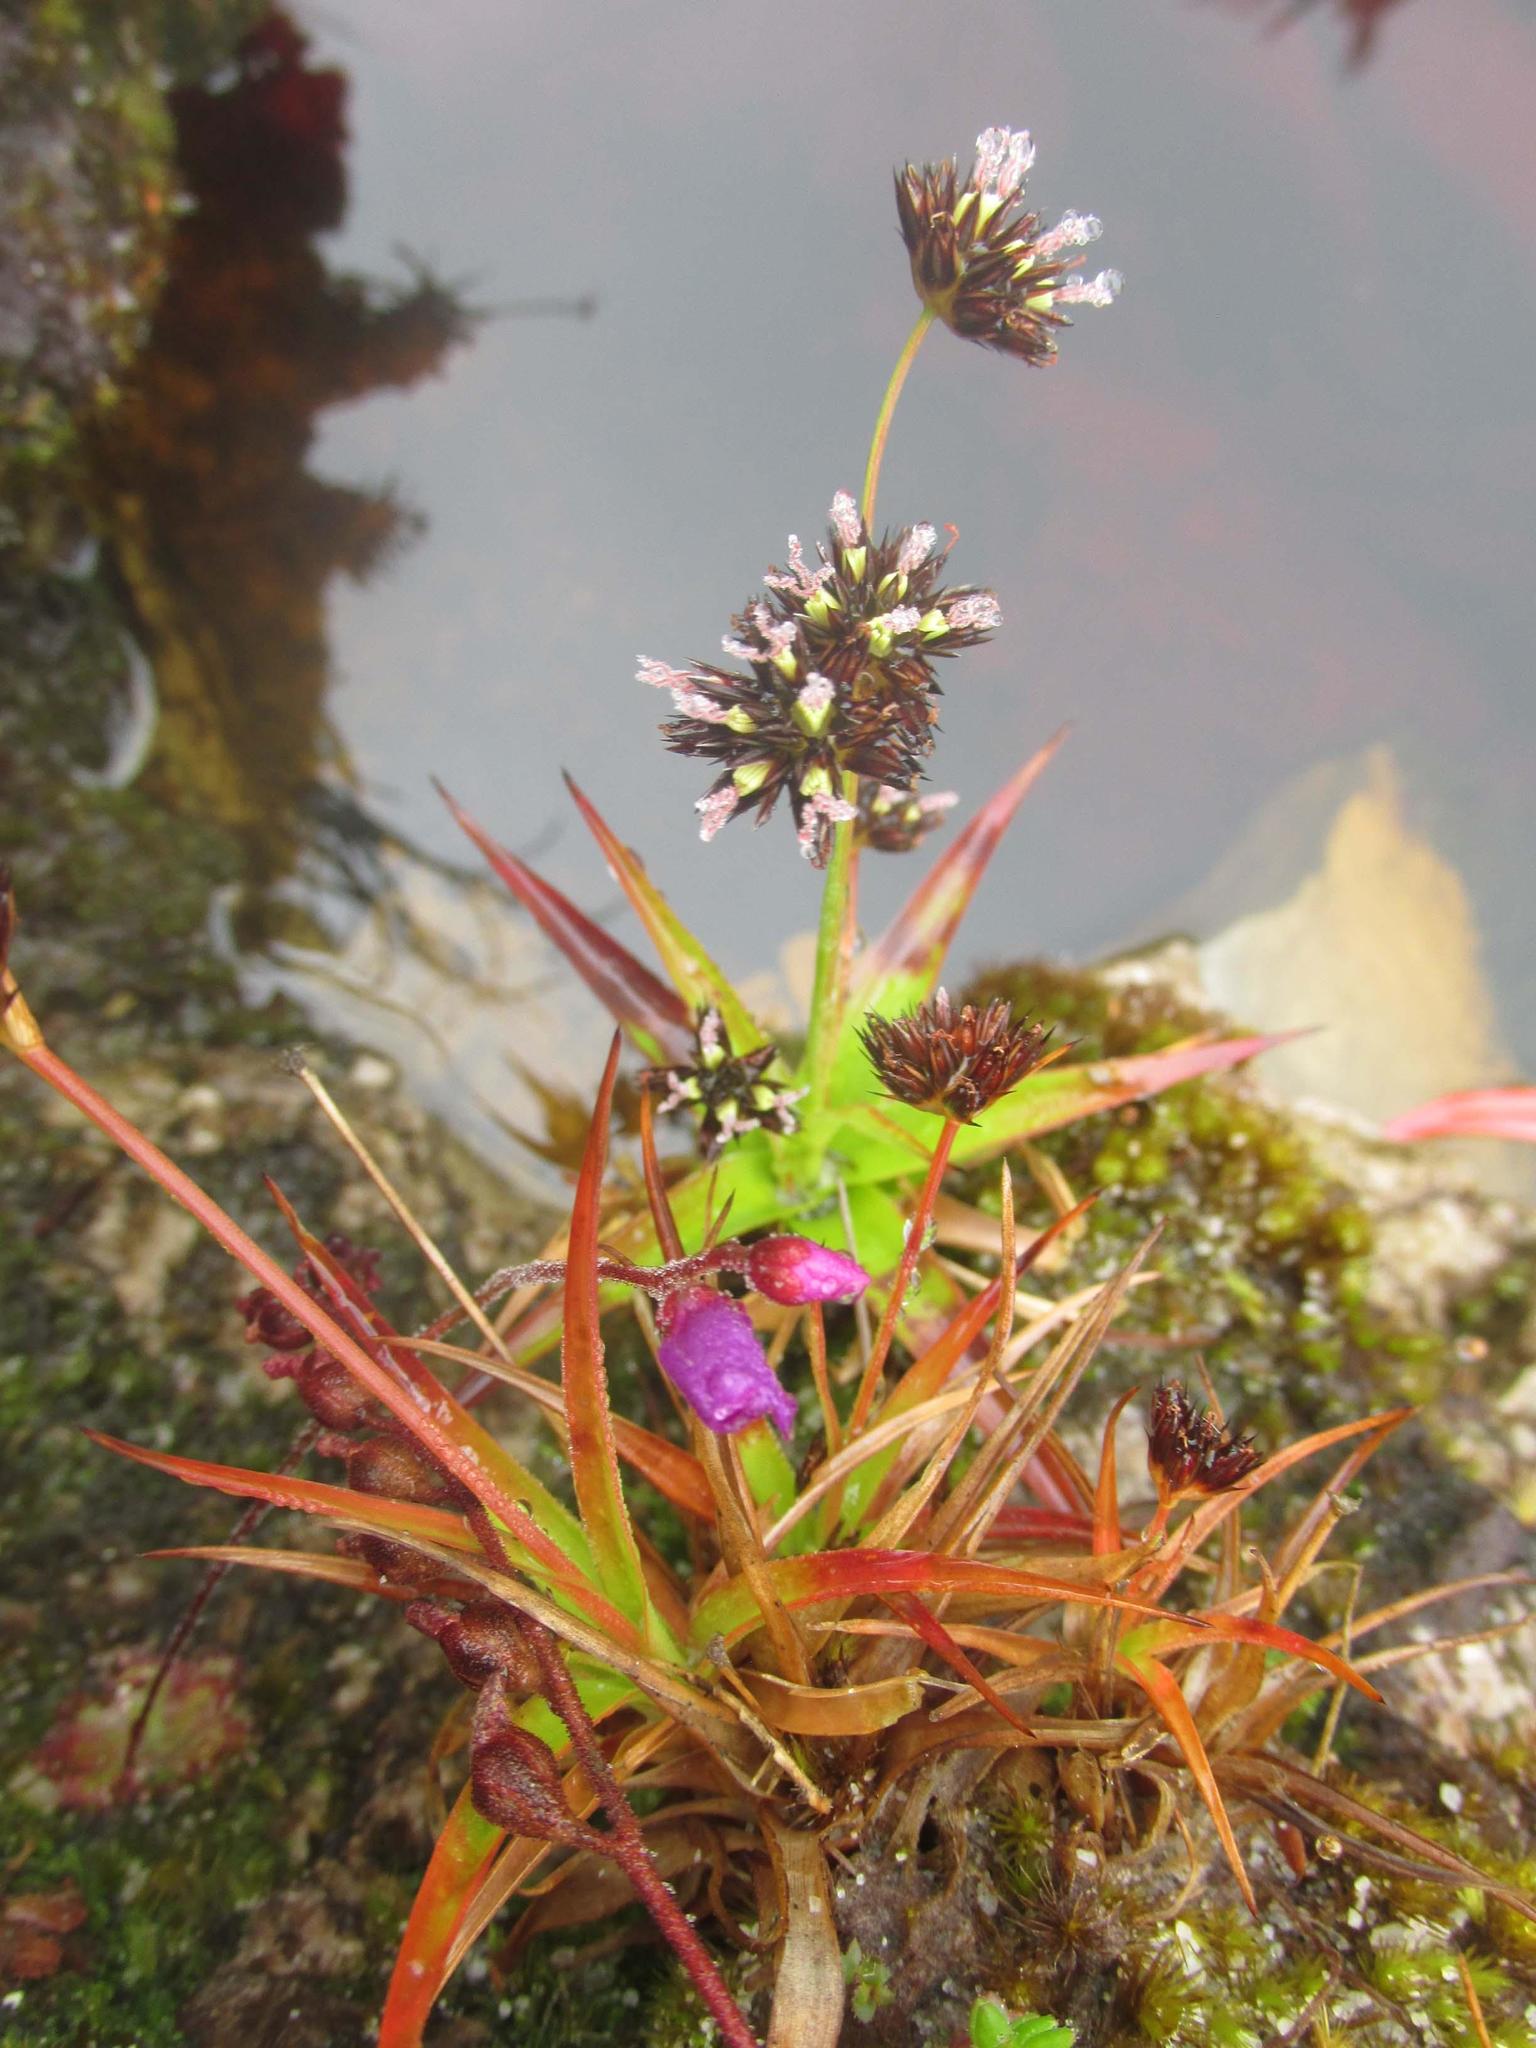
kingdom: Plantae
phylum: Tracheophyta
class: Liliopsida
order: Poales
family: Juncaceae
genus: Juncus
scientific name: Juncus lomatophyllus
